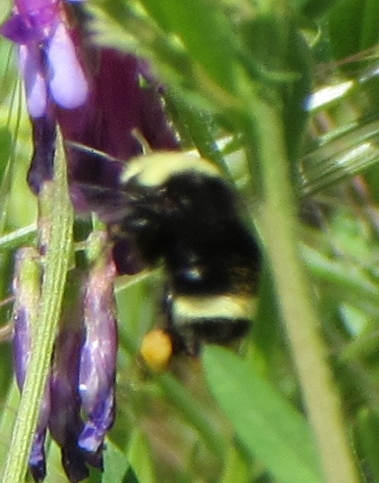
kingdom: Animalia
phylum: Arthropoda
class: Insecta
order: Hymenoptera
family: Apidae
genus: Bombus
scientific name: Bombus vosnesenskii
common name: Vosnesensky bumble bee
